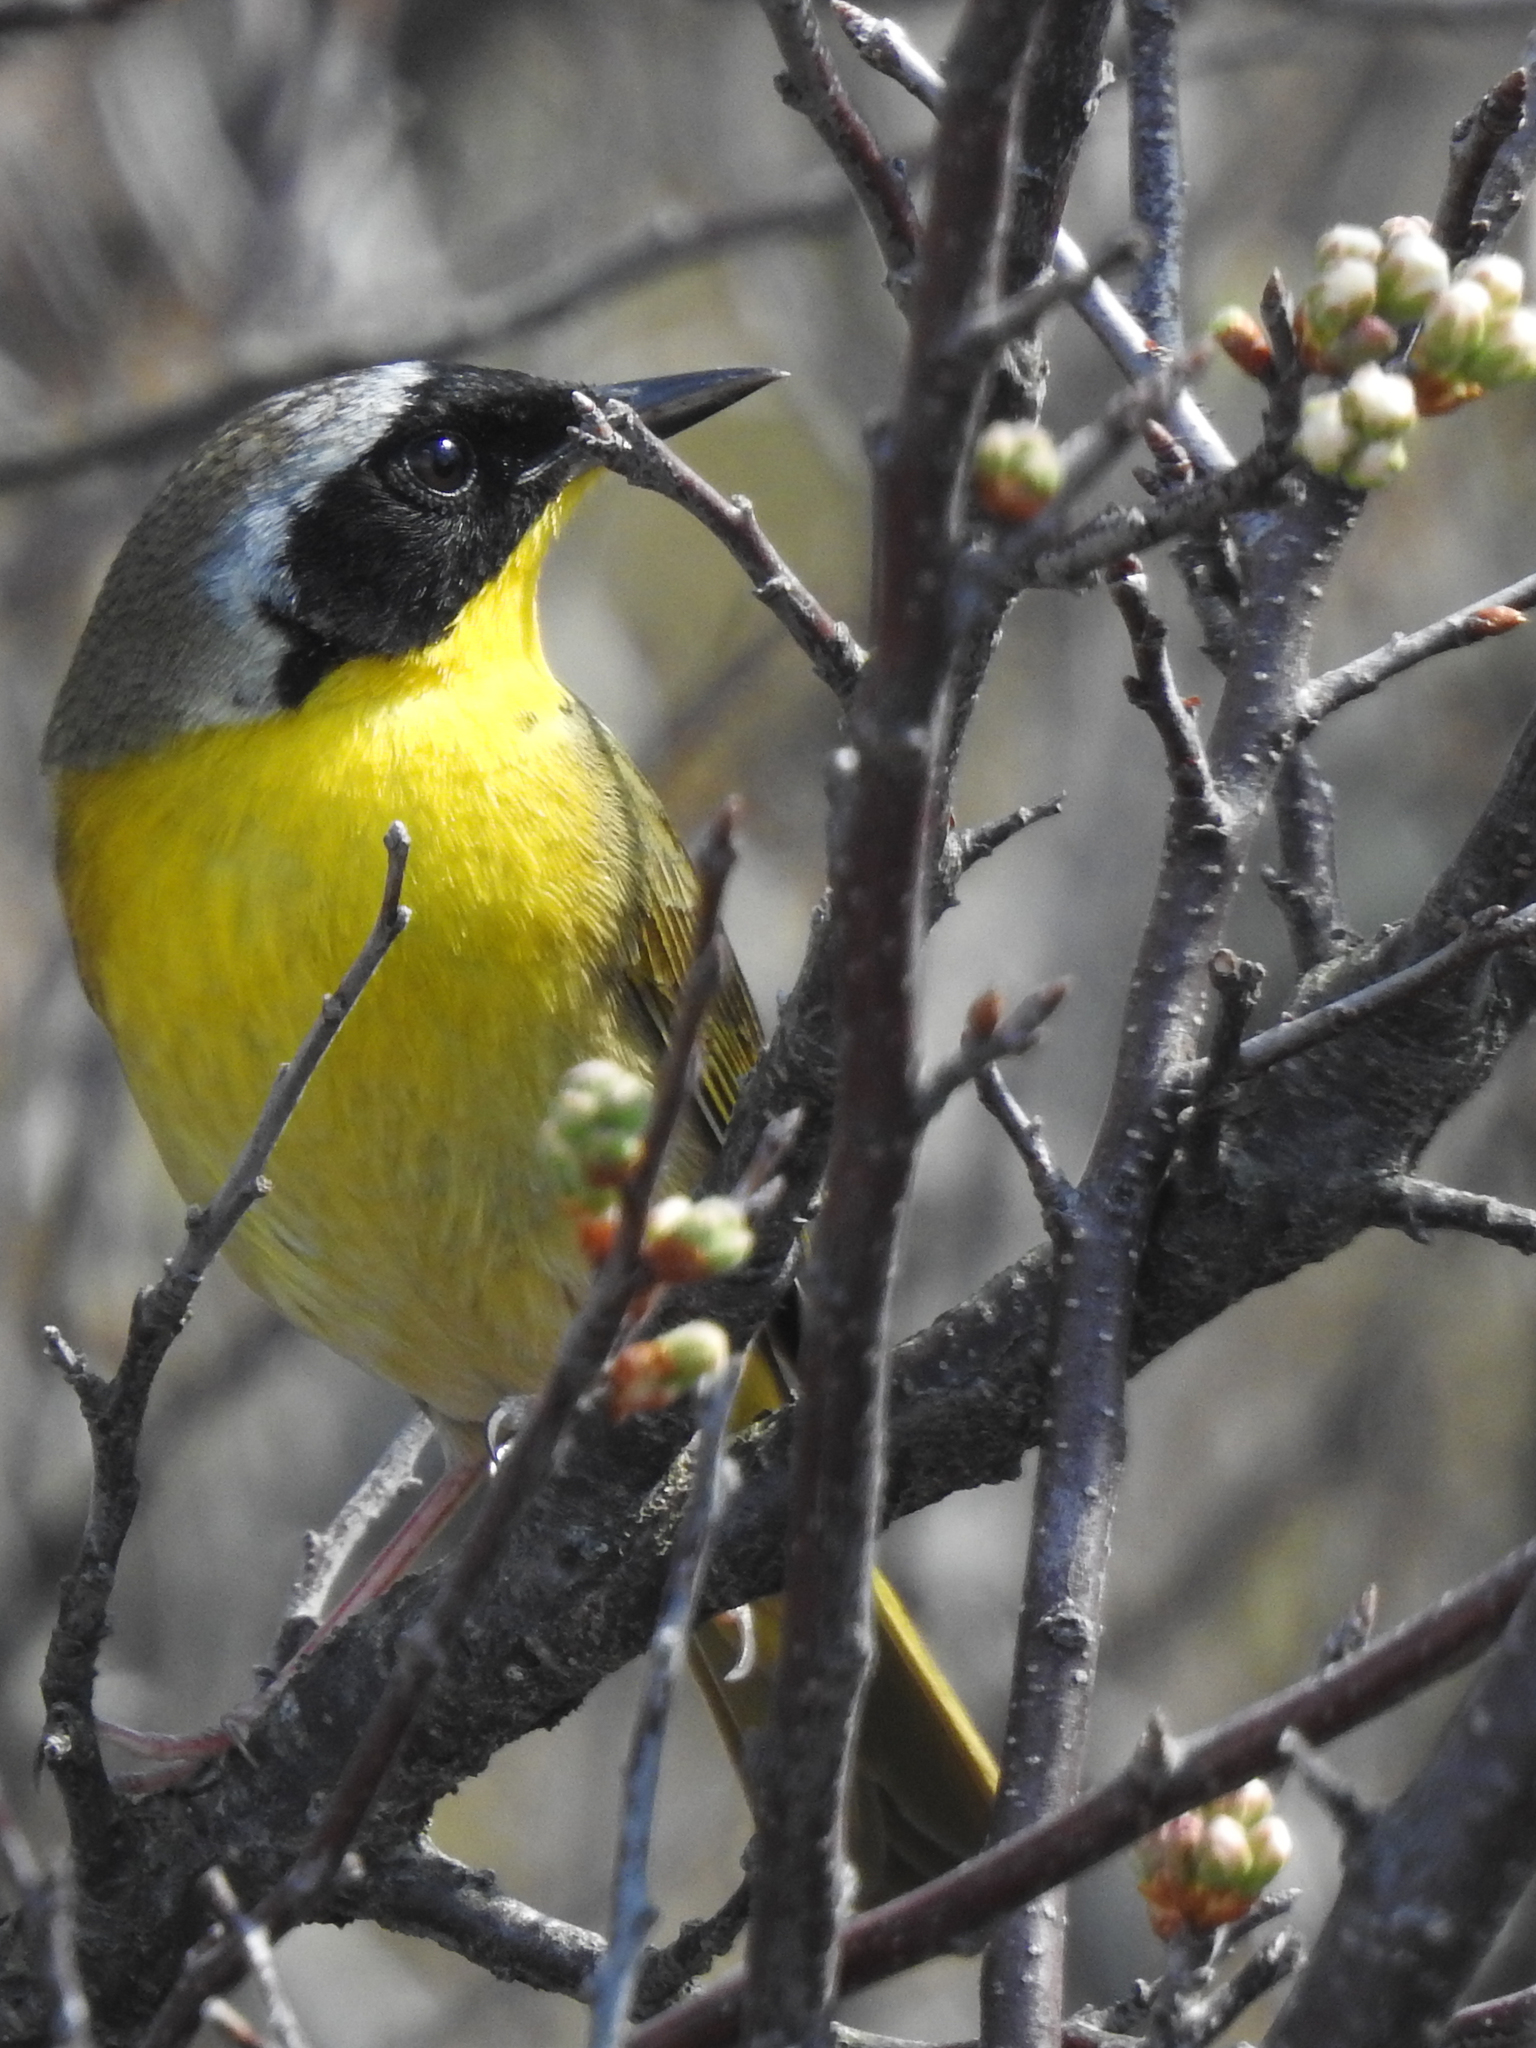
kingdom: Animalia
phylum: Chordata
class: Aves
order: Passeriformes
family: Parulidae
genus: Geothlypis
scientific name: Geothlypis trichas
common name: Common yellowthroat
